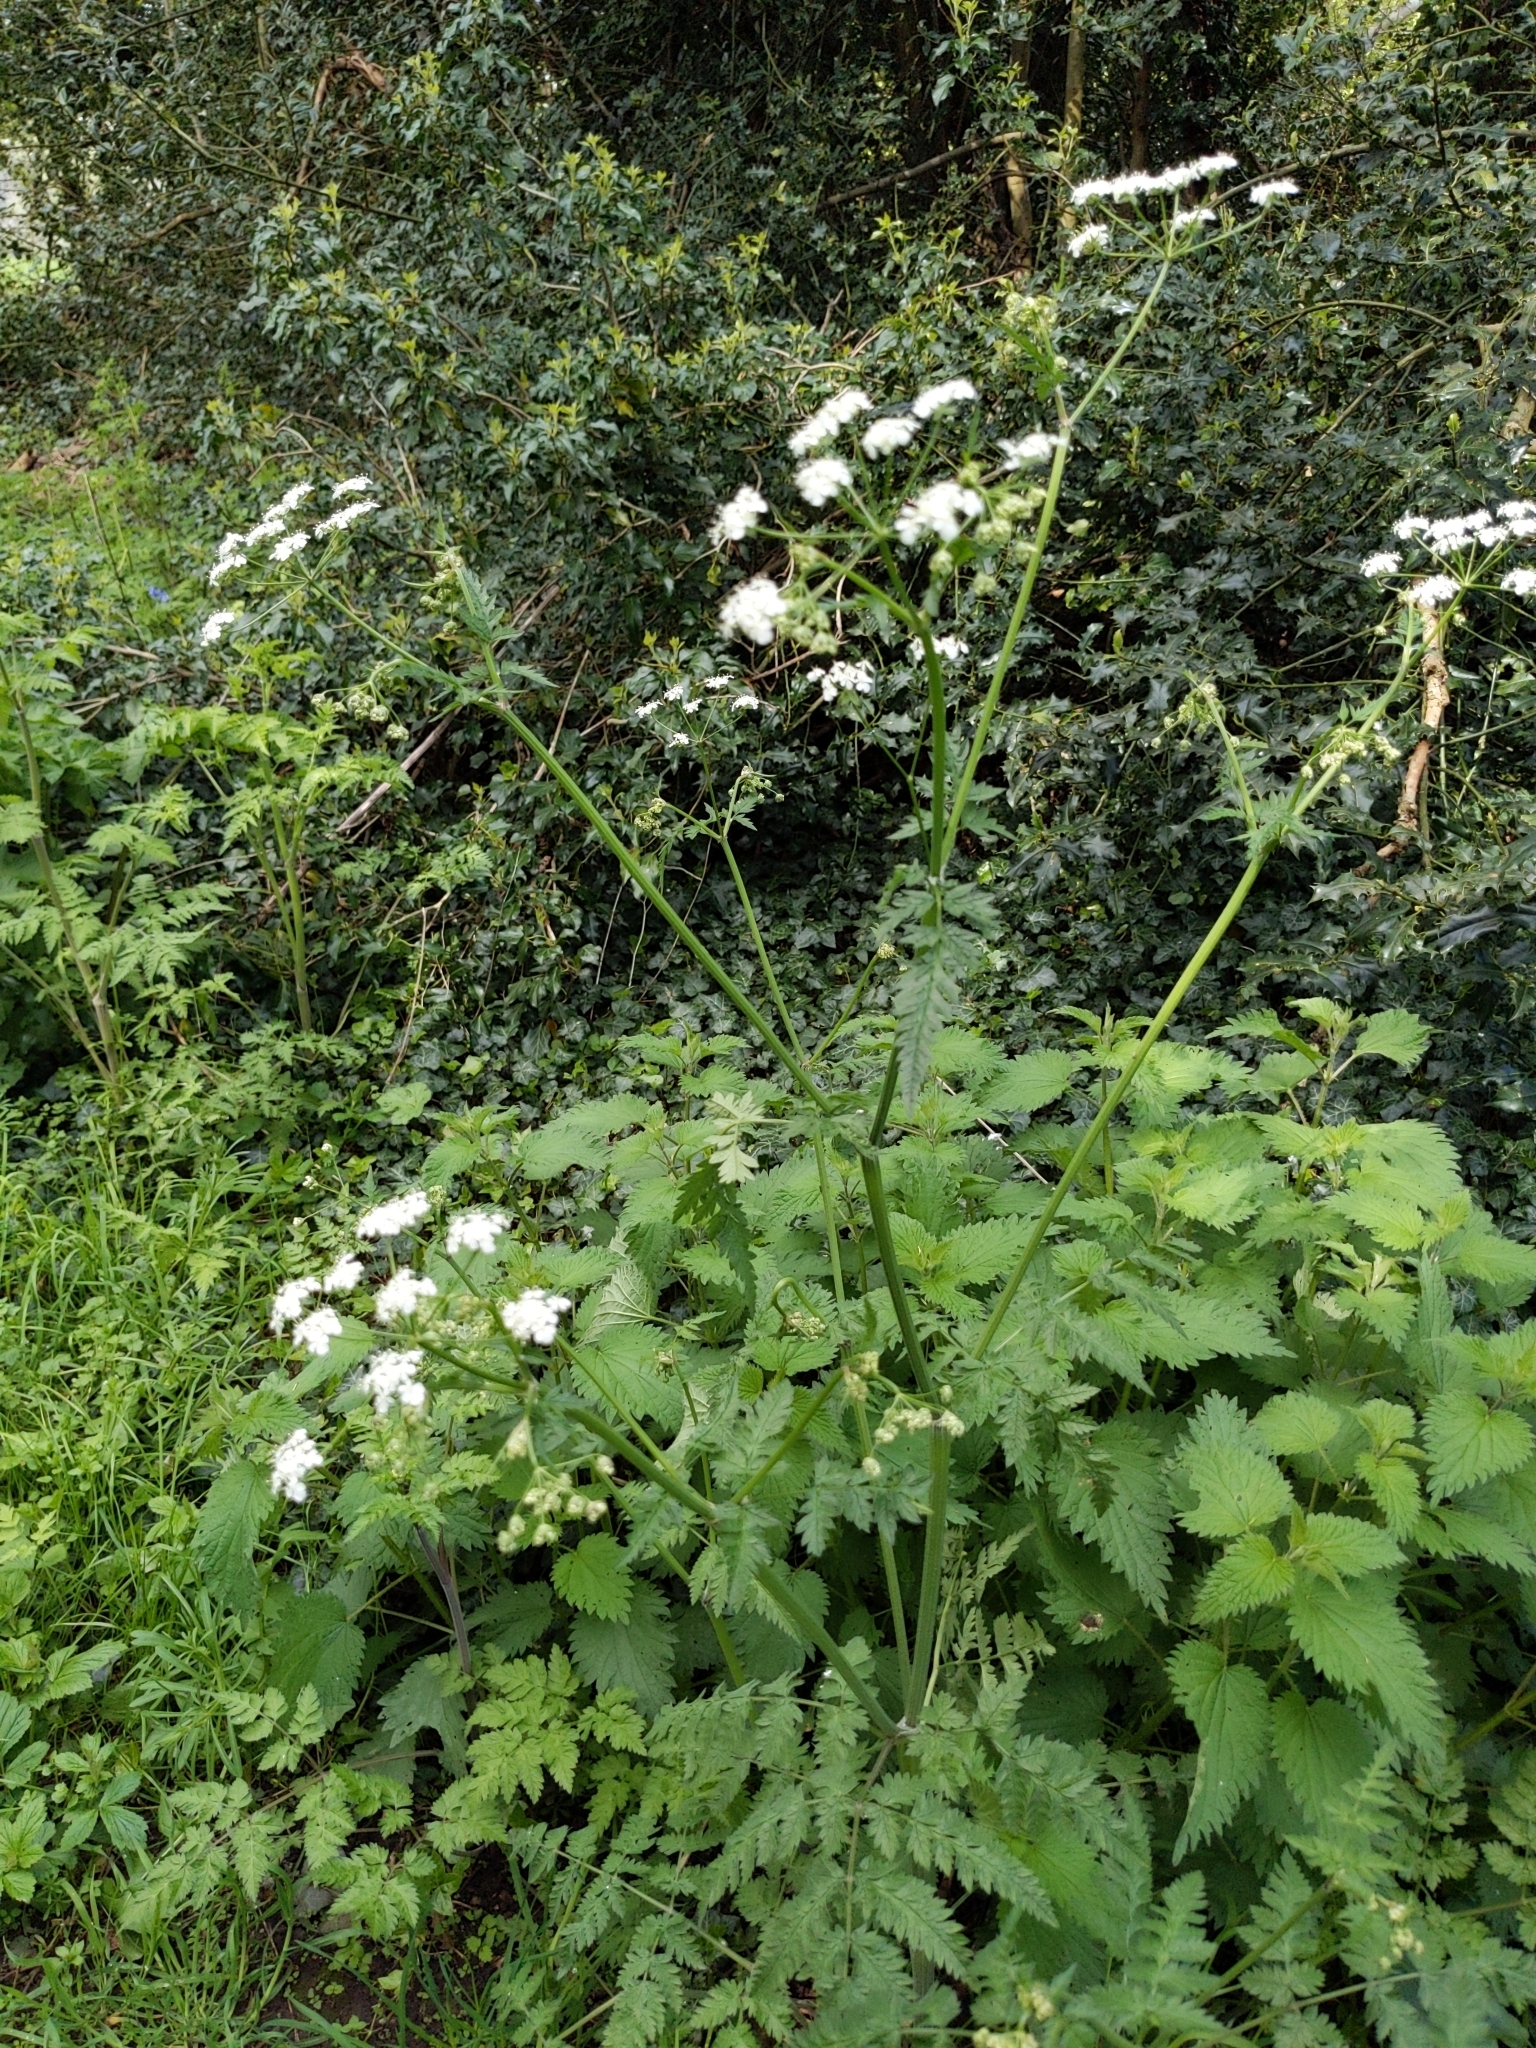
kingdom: Plantae
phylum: Tracheophyta
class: Magnoliopsida
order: Apiales
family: Apiaceae
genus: Anthriscus
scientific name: Anthriscus sylvestris
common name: Cow parsley
